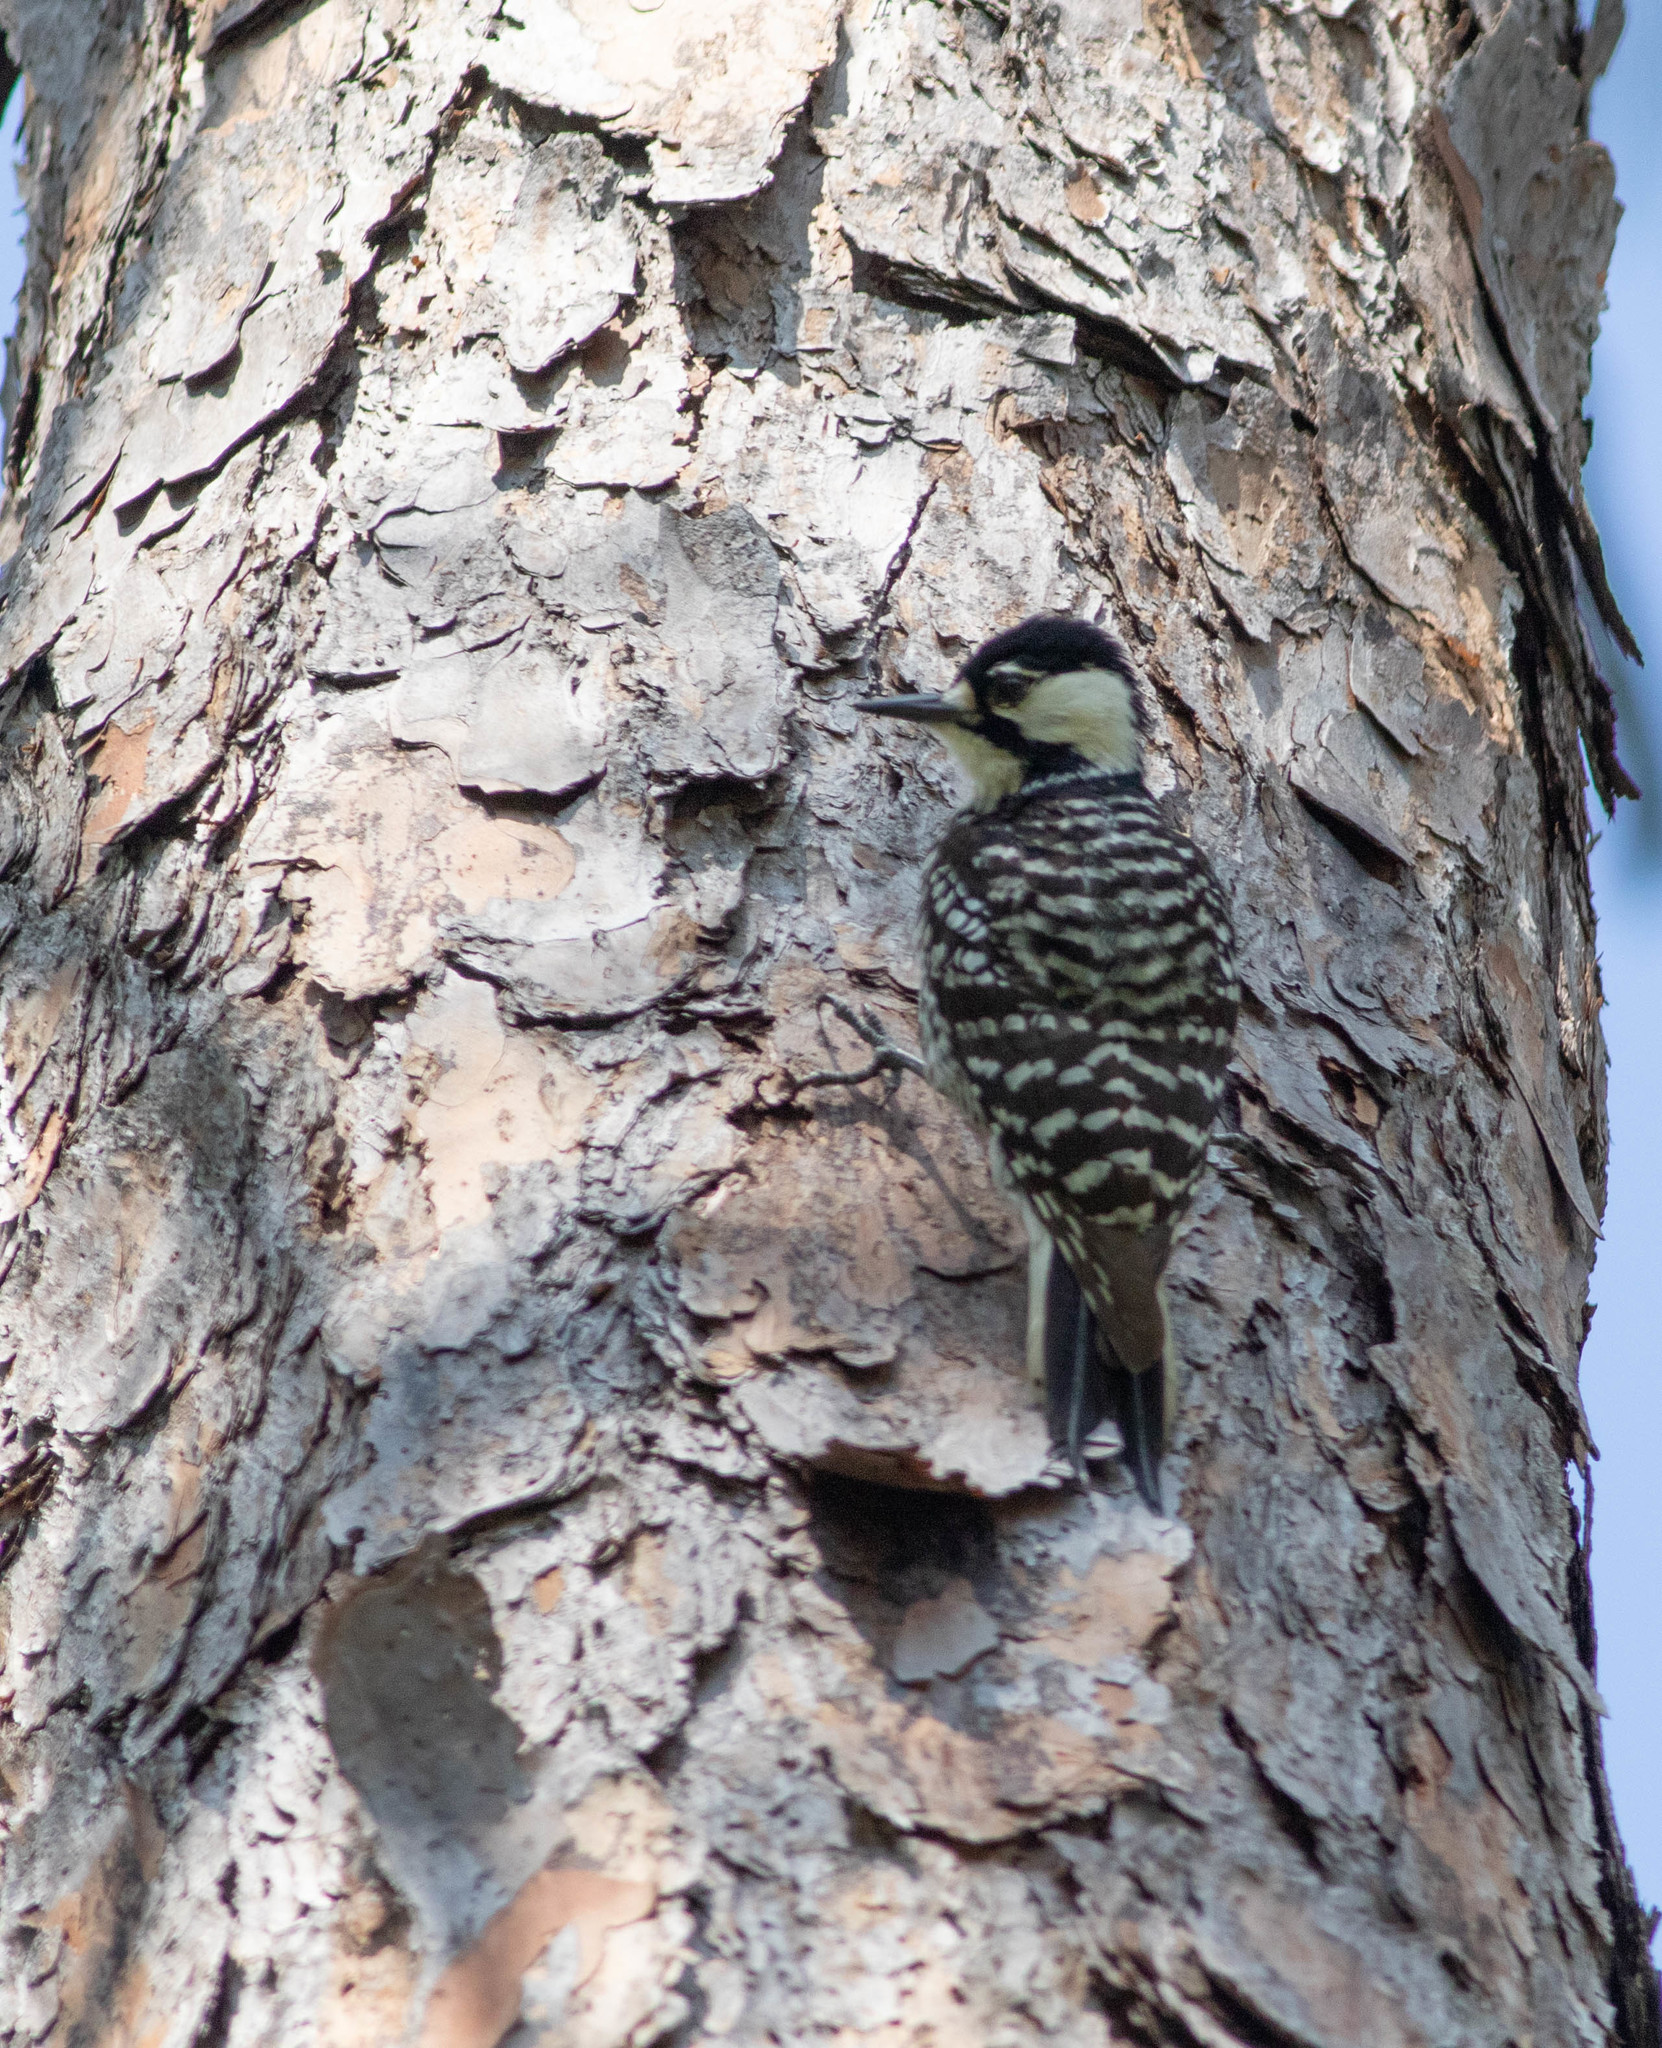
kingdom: Animalia
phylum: Chordata
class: Aves
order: Piciformes
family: Picidae
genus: Leuconotopicus
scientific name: Leuconotopicus borealis
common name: Red-cockaded woodpecker
